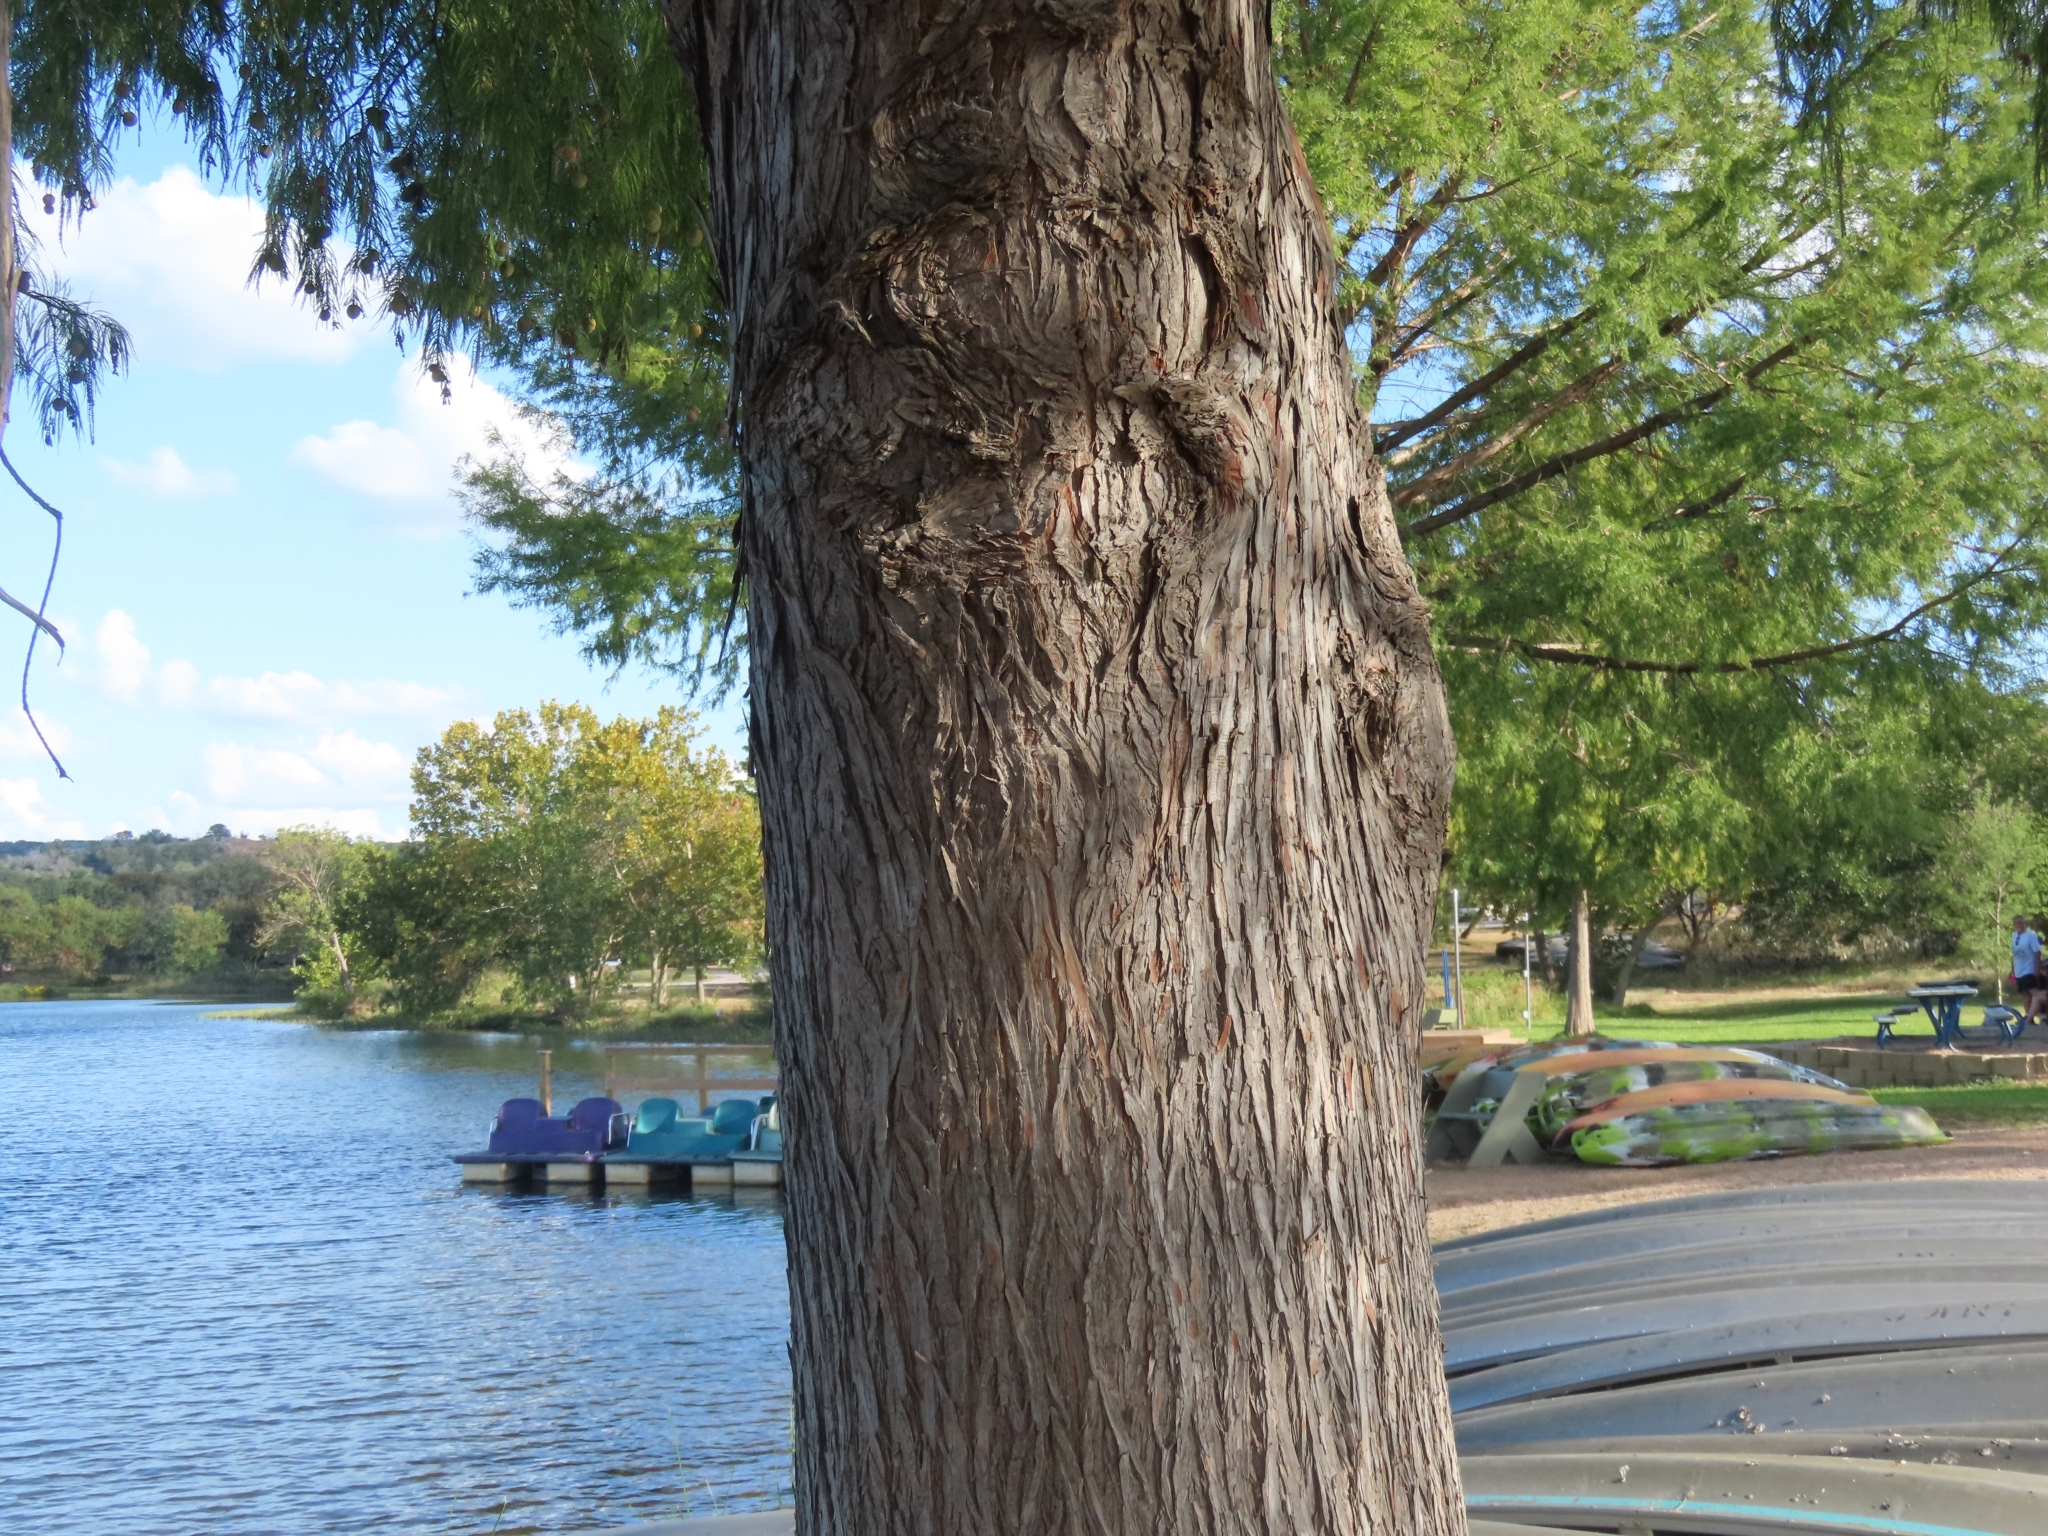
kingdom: Plantae
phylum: Tracheophyta
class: Pinopsida
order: Pinales
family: Cupressaceae
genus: Taxodium
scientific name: Taxodium distichum
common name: Bald cypress
